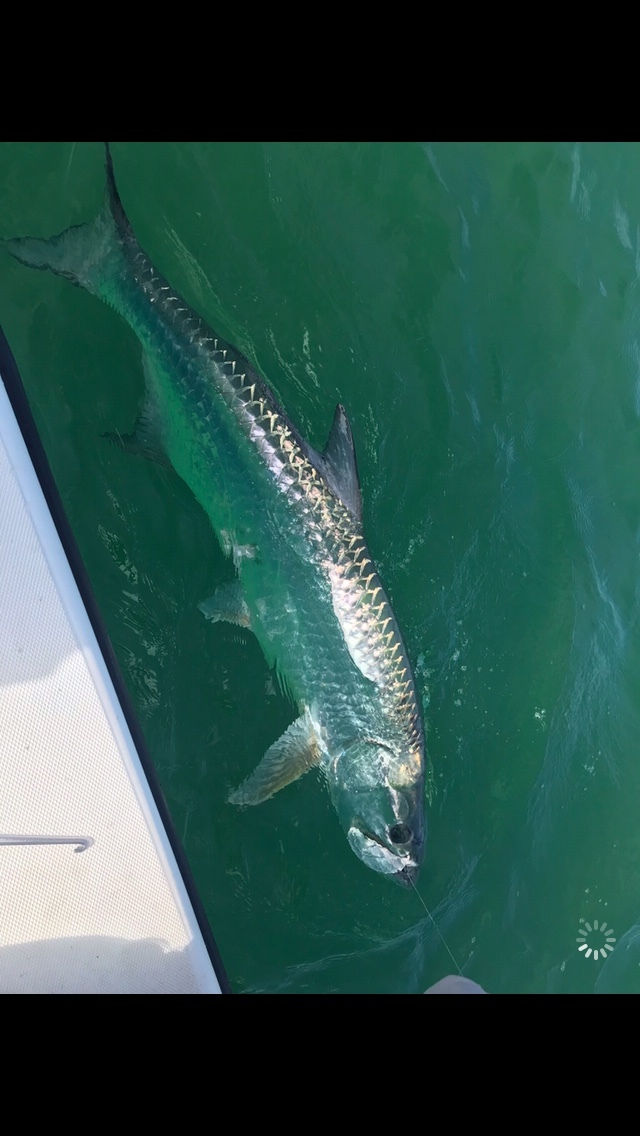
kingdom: Animalia
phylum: Chordata
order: Elopiformes
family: Megalopidae
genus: Megalops
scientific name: Megalops atlanticus
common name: Tarpon
